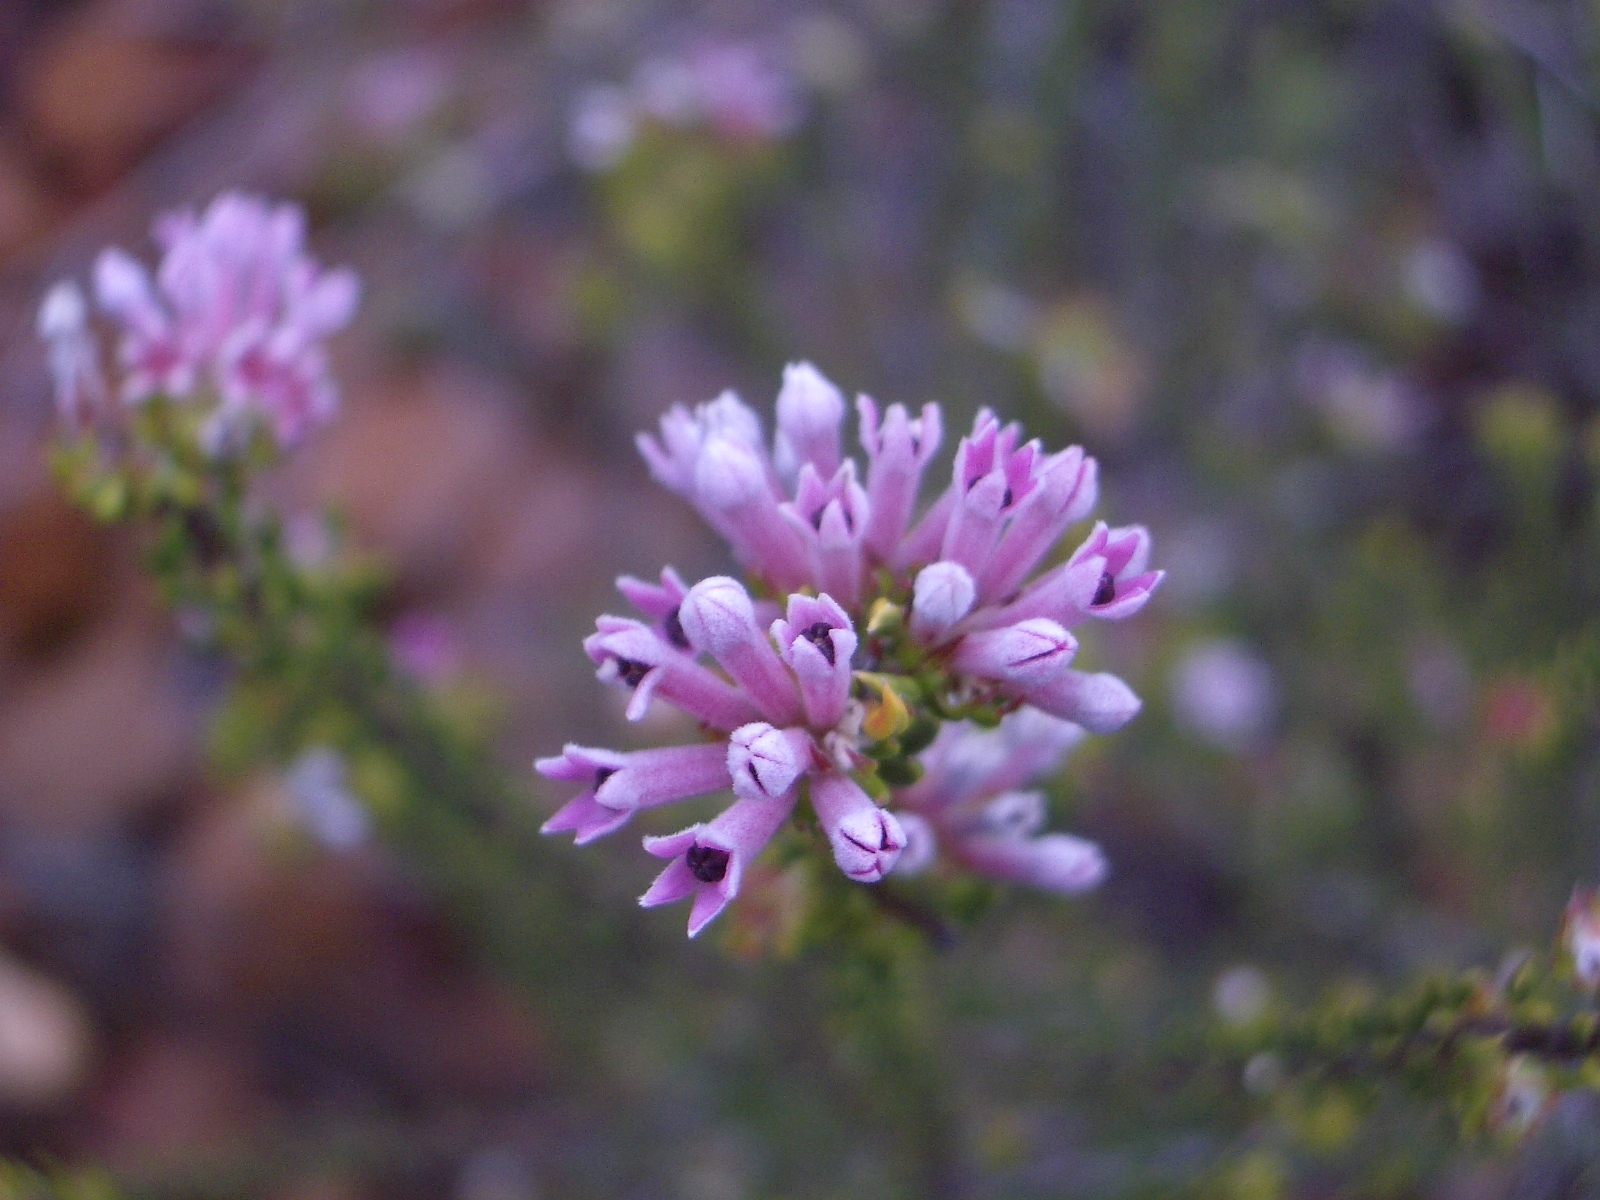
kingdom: Plantae
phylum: Tracheophyta
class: Magnoliopsida
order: Rosales
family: Rhamnaceae
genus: Phylica
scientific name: Phylica lachneaeoides
